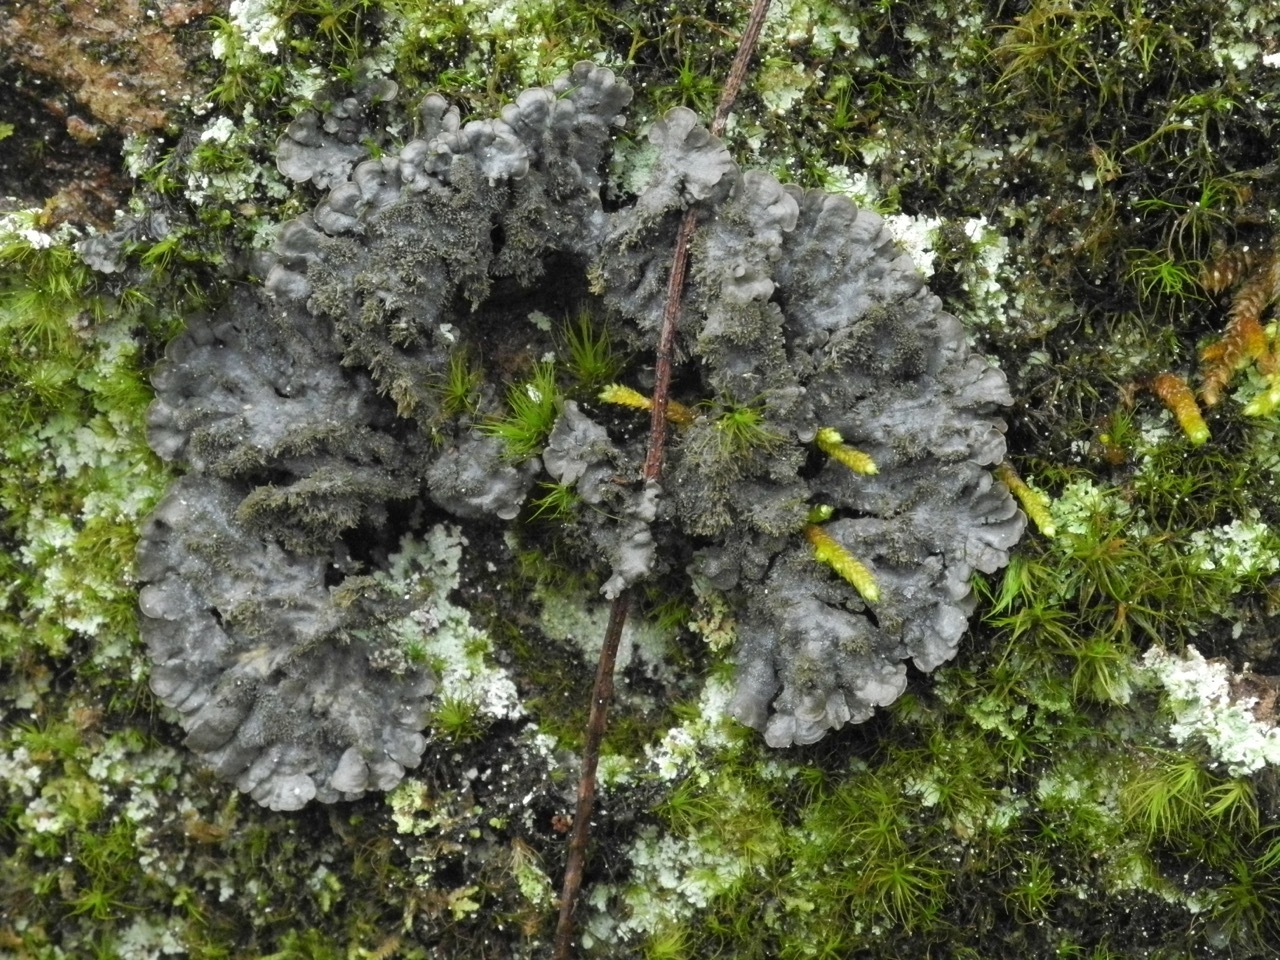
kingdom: Fungi
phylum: Ascomycota
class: Lecanoromycetes
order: Peltigerales
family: Coccocarpiaceae
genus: Coccocarpia
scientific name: Coccocarpia palmicola
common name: Salted shell lichen
